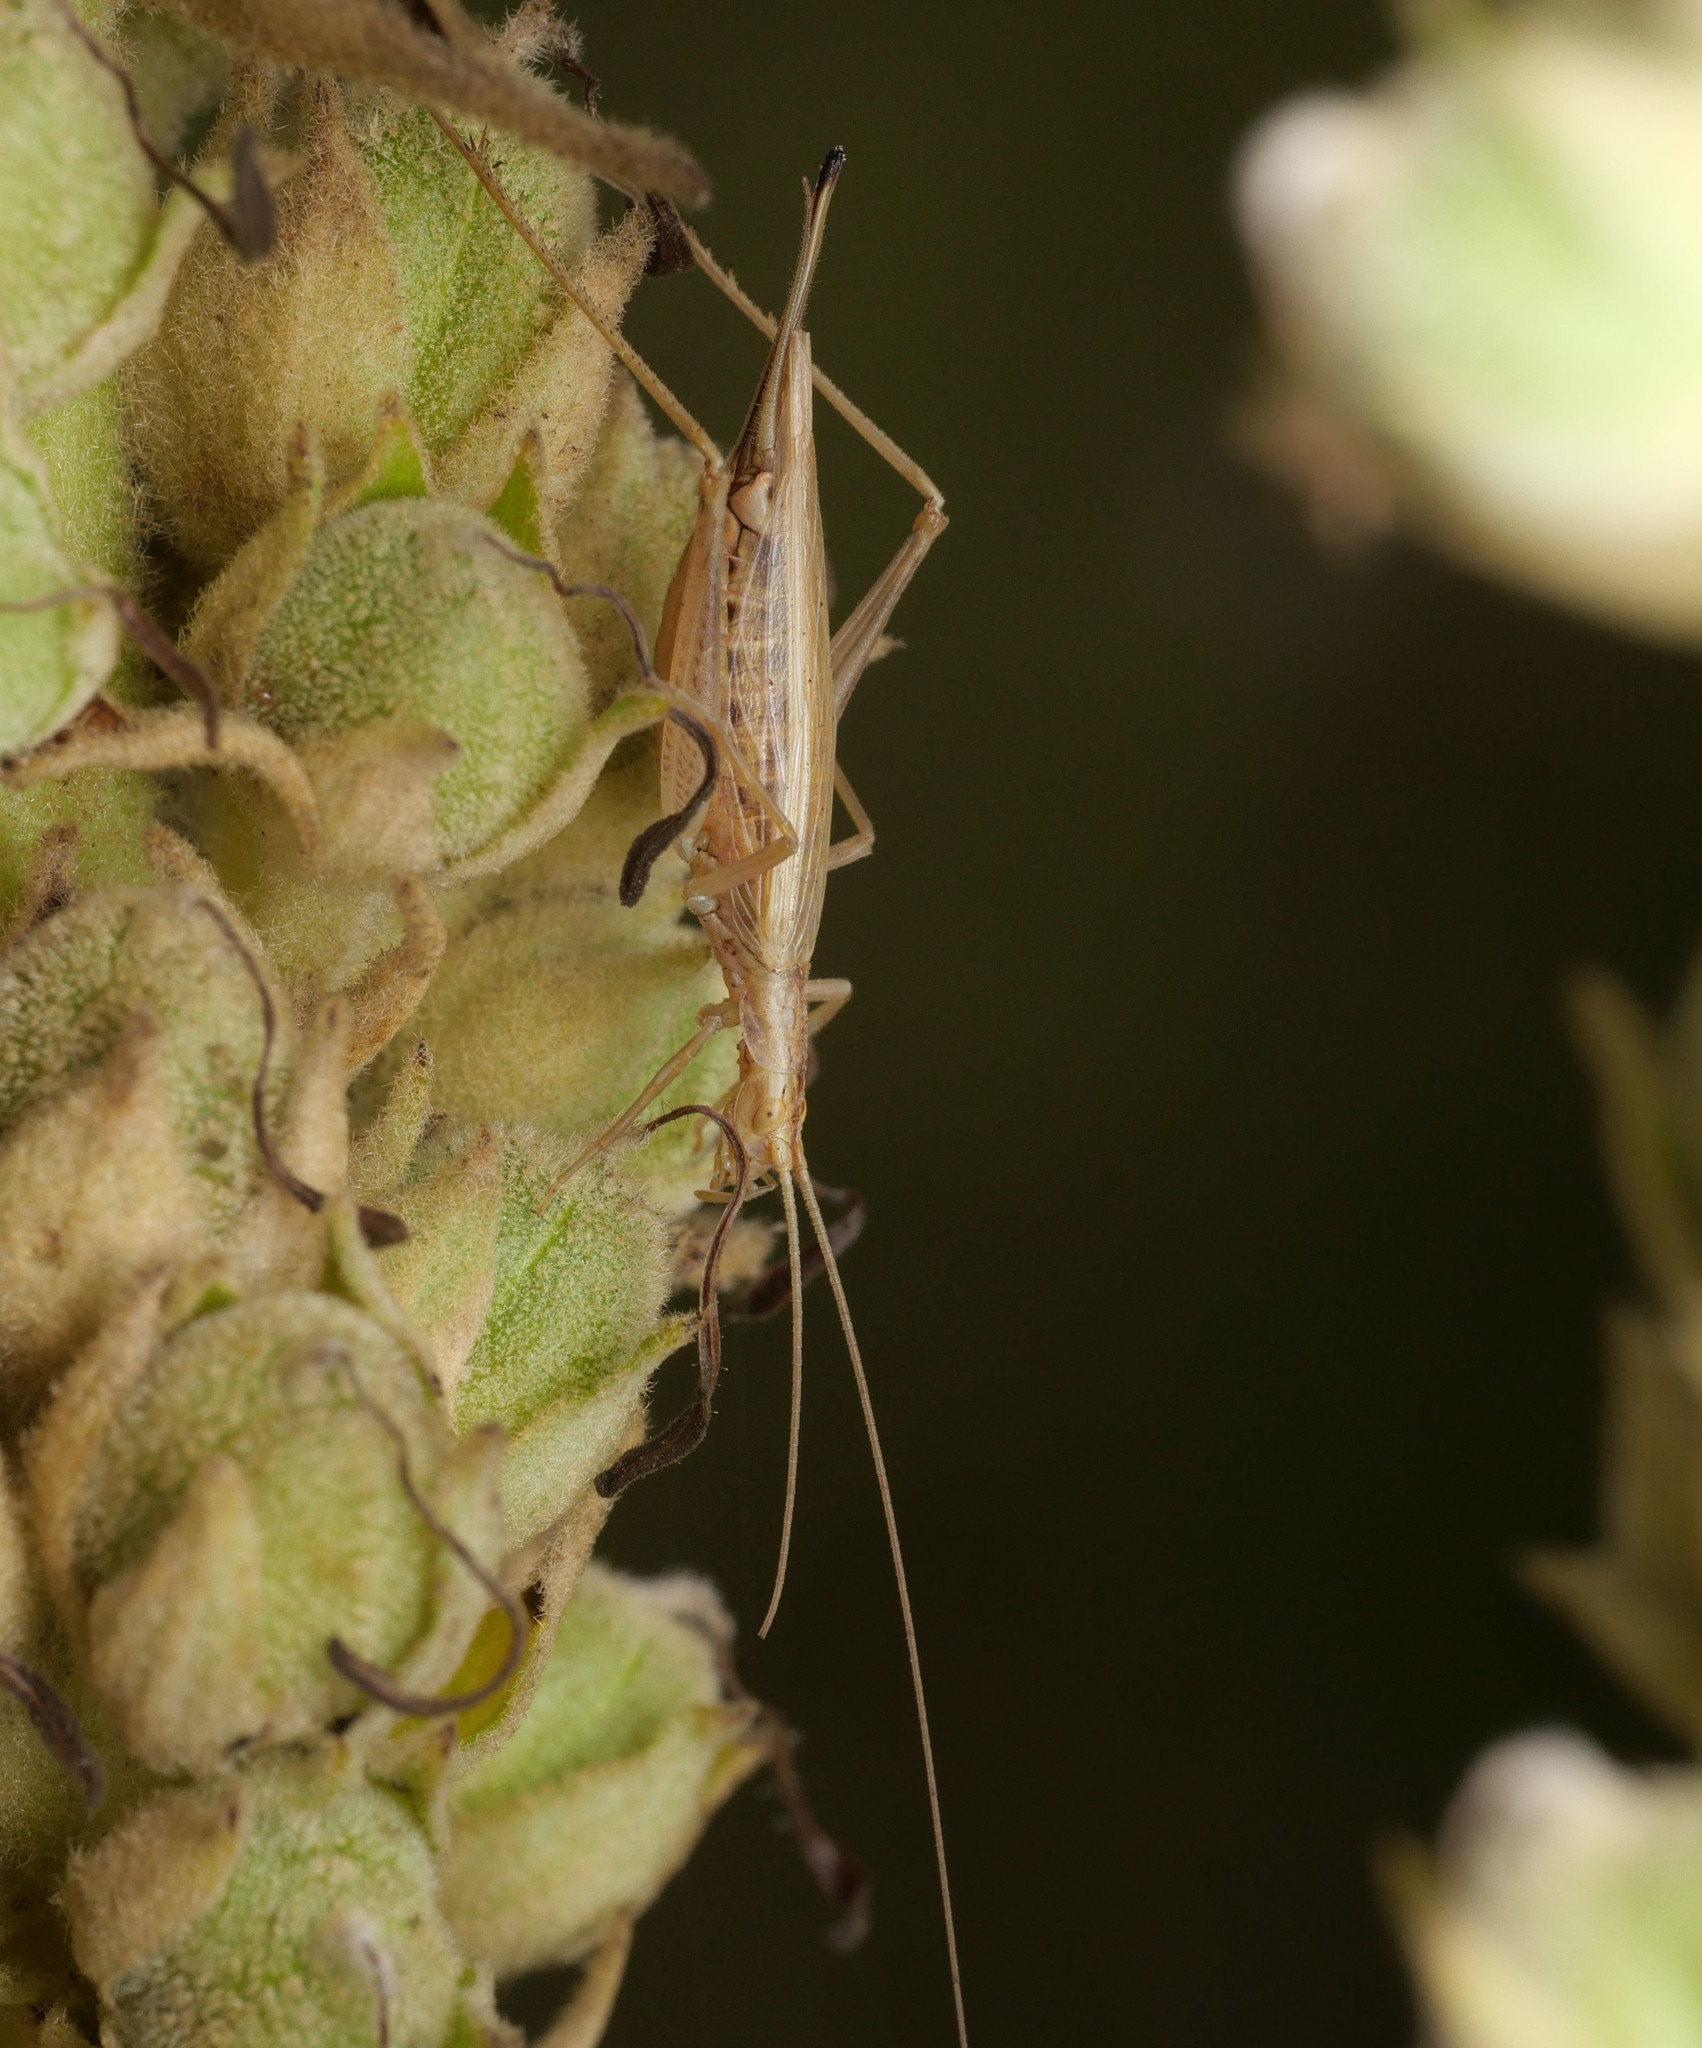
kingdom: Animalia
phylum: Arthropoda
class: Insecta
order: Orthoptera
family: Gryllidae
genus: Oecanthus
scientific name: Oecanthus pellucens
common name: Tree-cricket
